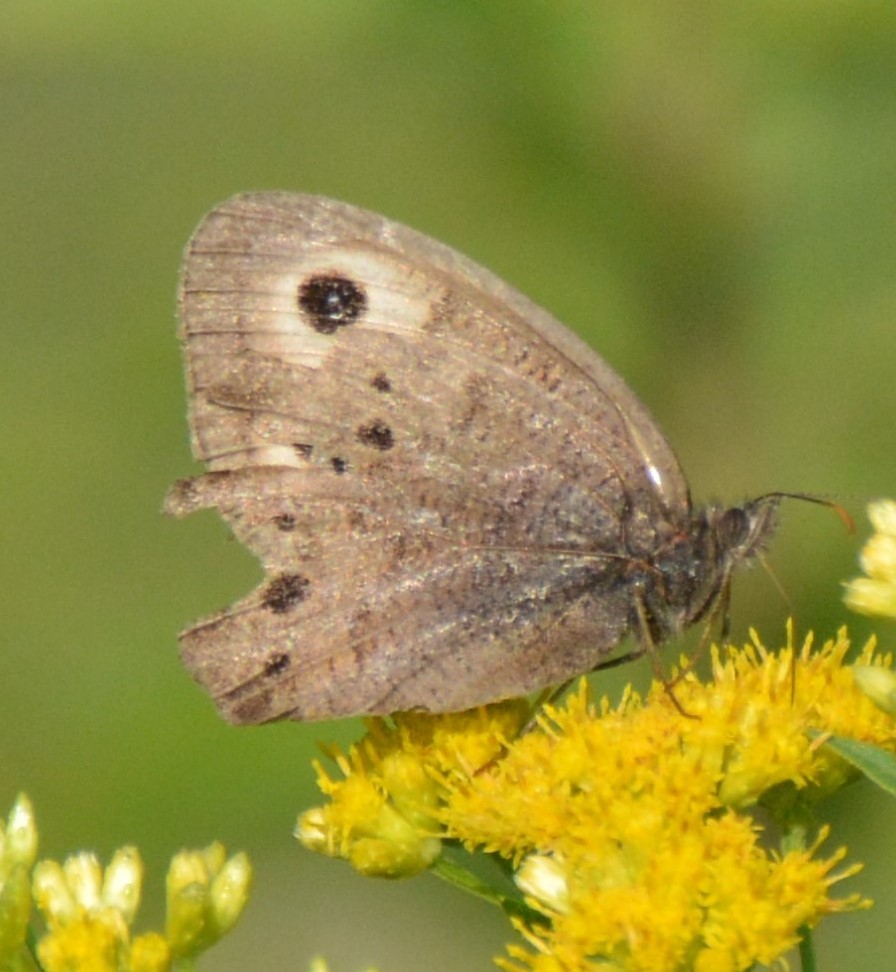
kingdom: Animalia
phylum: Arthropoda
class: Insecta
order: Lepidoptera
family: Nymphalidae
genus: Cercyonis
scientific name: Cercyonis pegala
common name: Common wood-nymph
